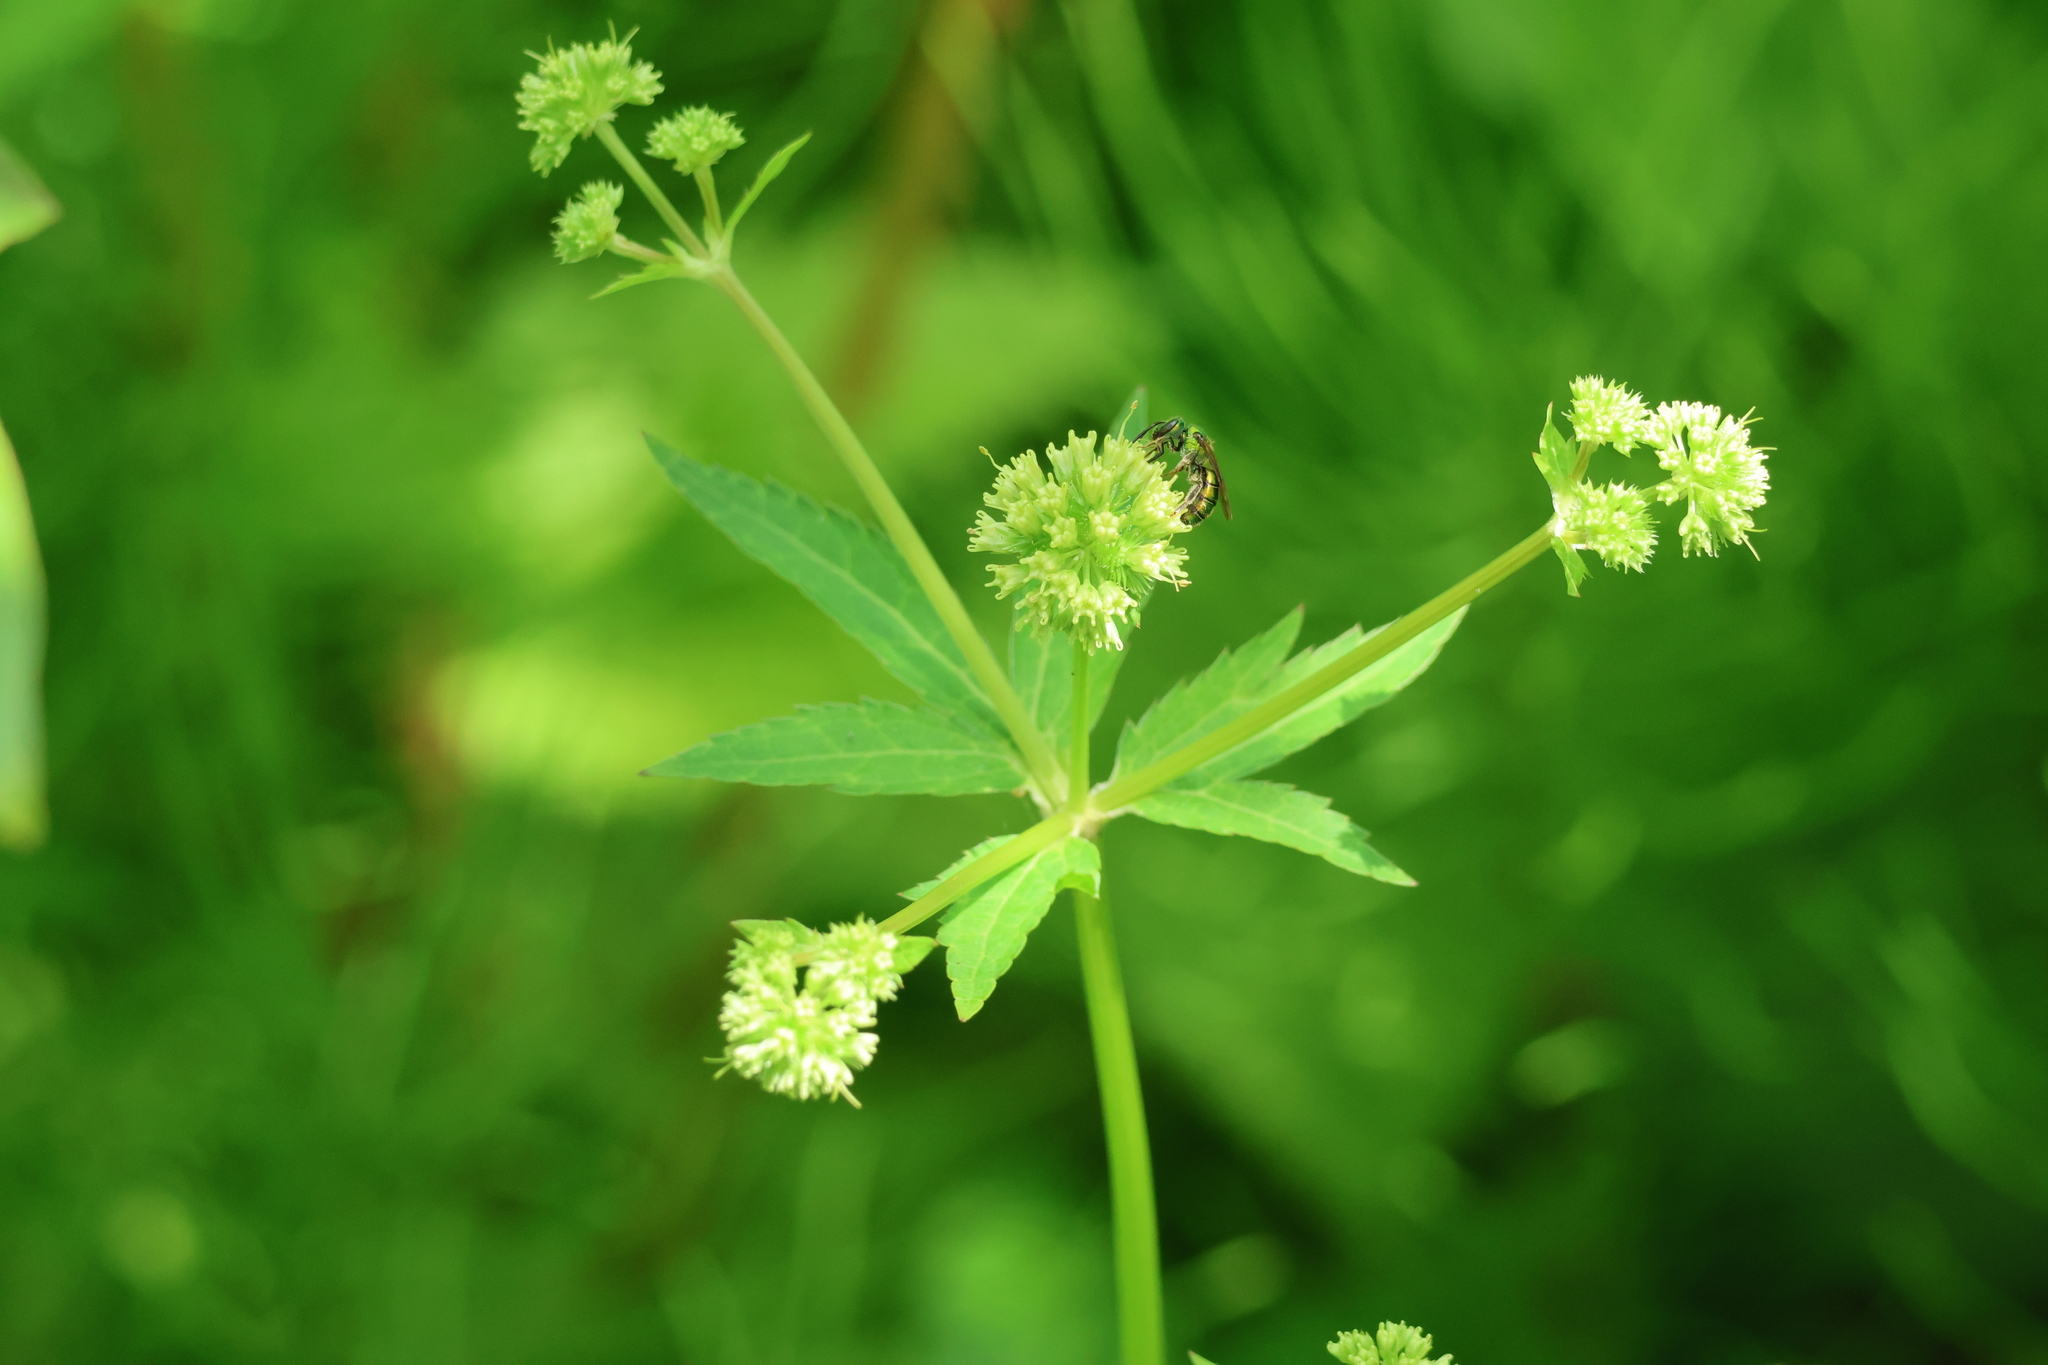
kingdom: Plantae
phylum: Tracheophyta
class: Magnoliopsida
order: Apiales
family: Apiaceae
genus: Sanicula
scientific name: Sanicula marilandica
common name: Black snakeroot
